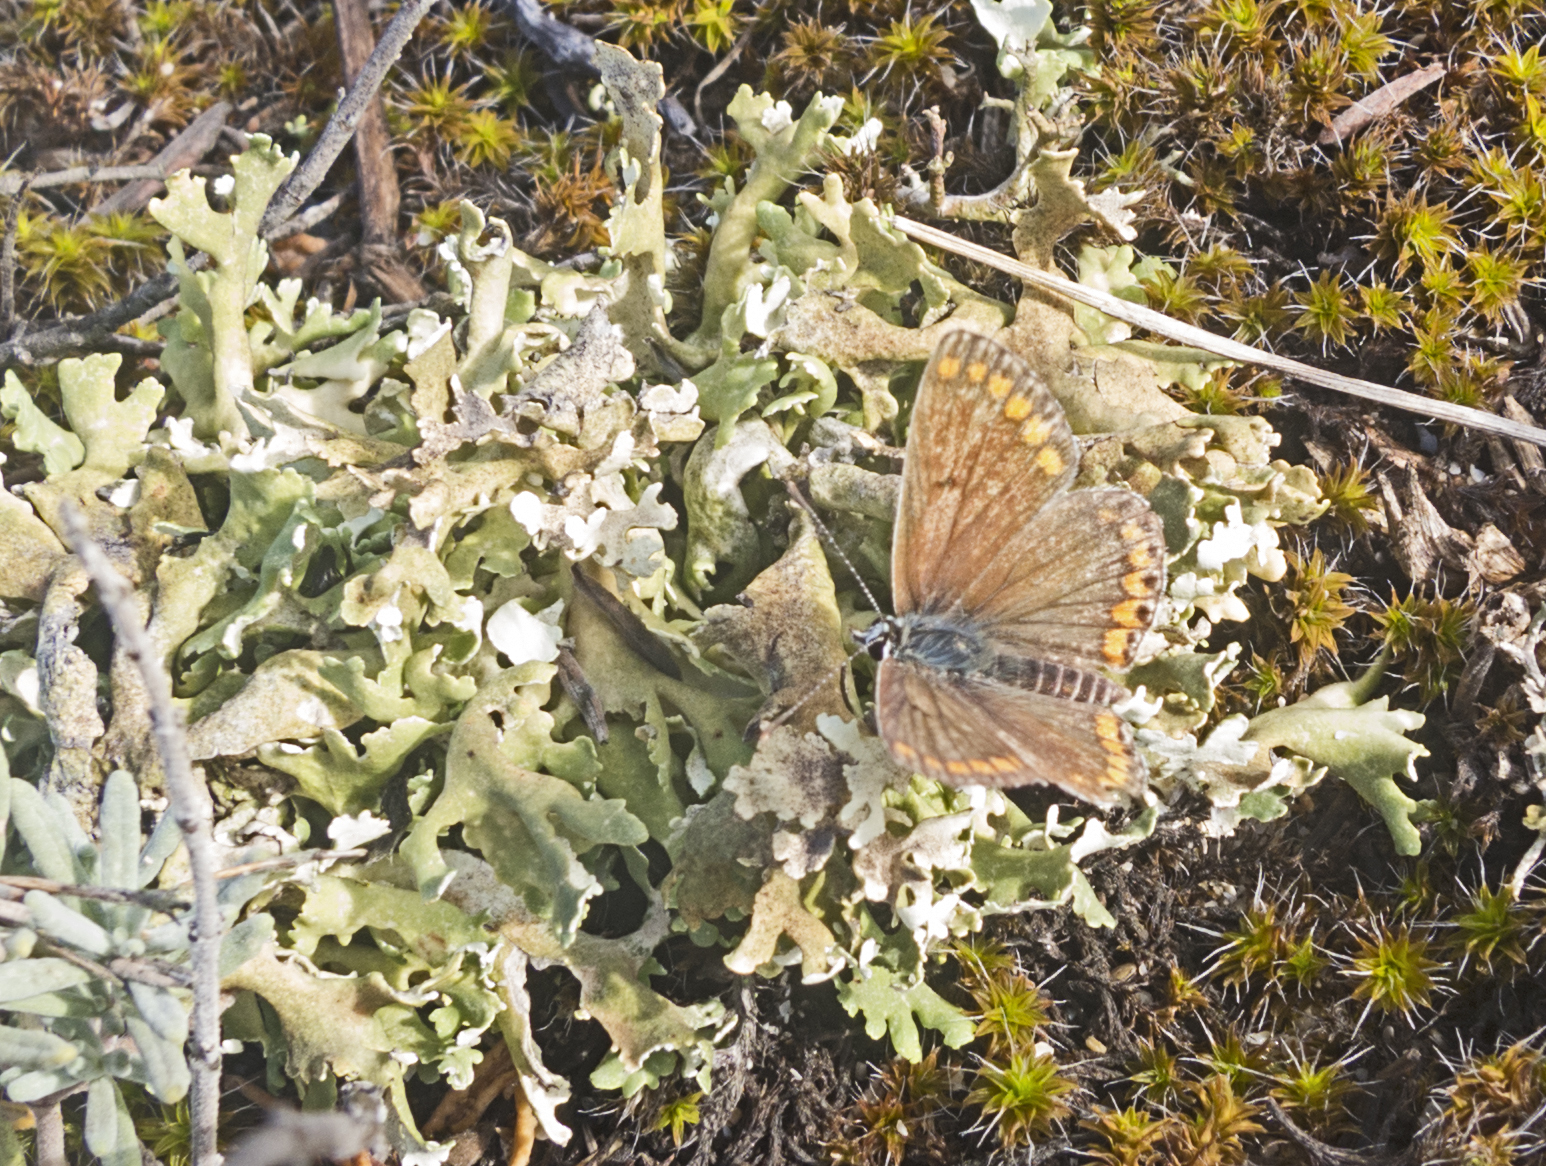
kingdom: Animalia
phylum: Arthropoda
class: Insecta
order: Lepidoptera
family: Lycaenidae
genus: Aricia
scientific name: Aricia agestis
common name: Brown argus
